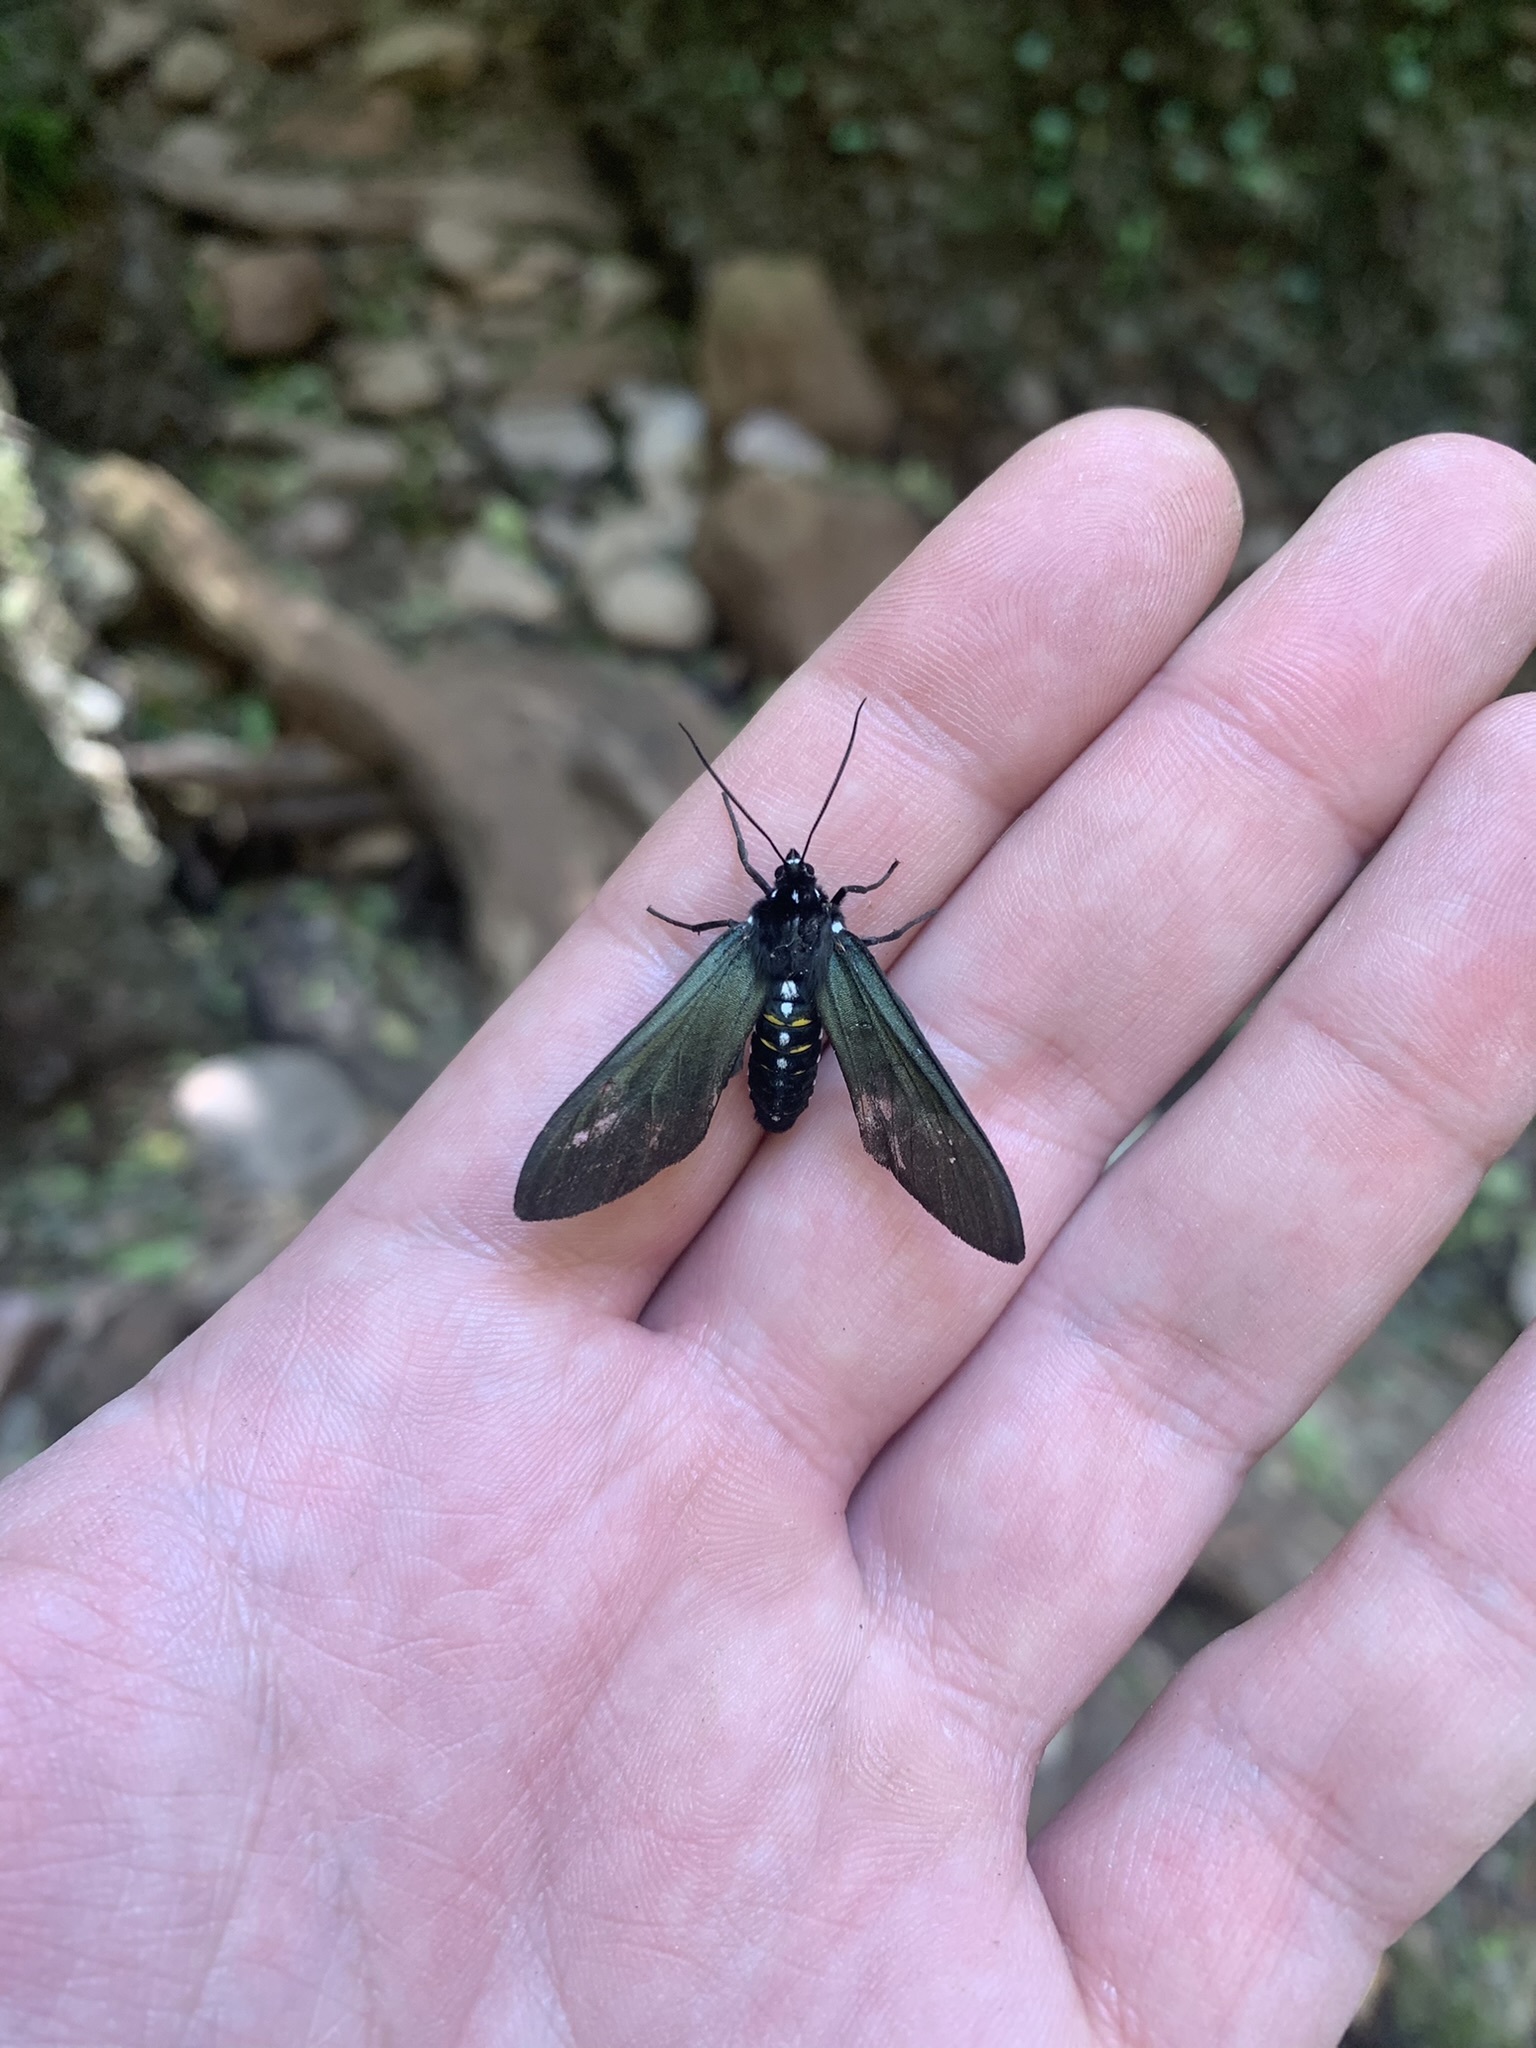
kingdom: Animalia
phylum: Arthropoda
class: Insecta
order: Lepidoptera
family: Erebidae
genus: Chrysocale
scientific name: Chrysocale ferens
